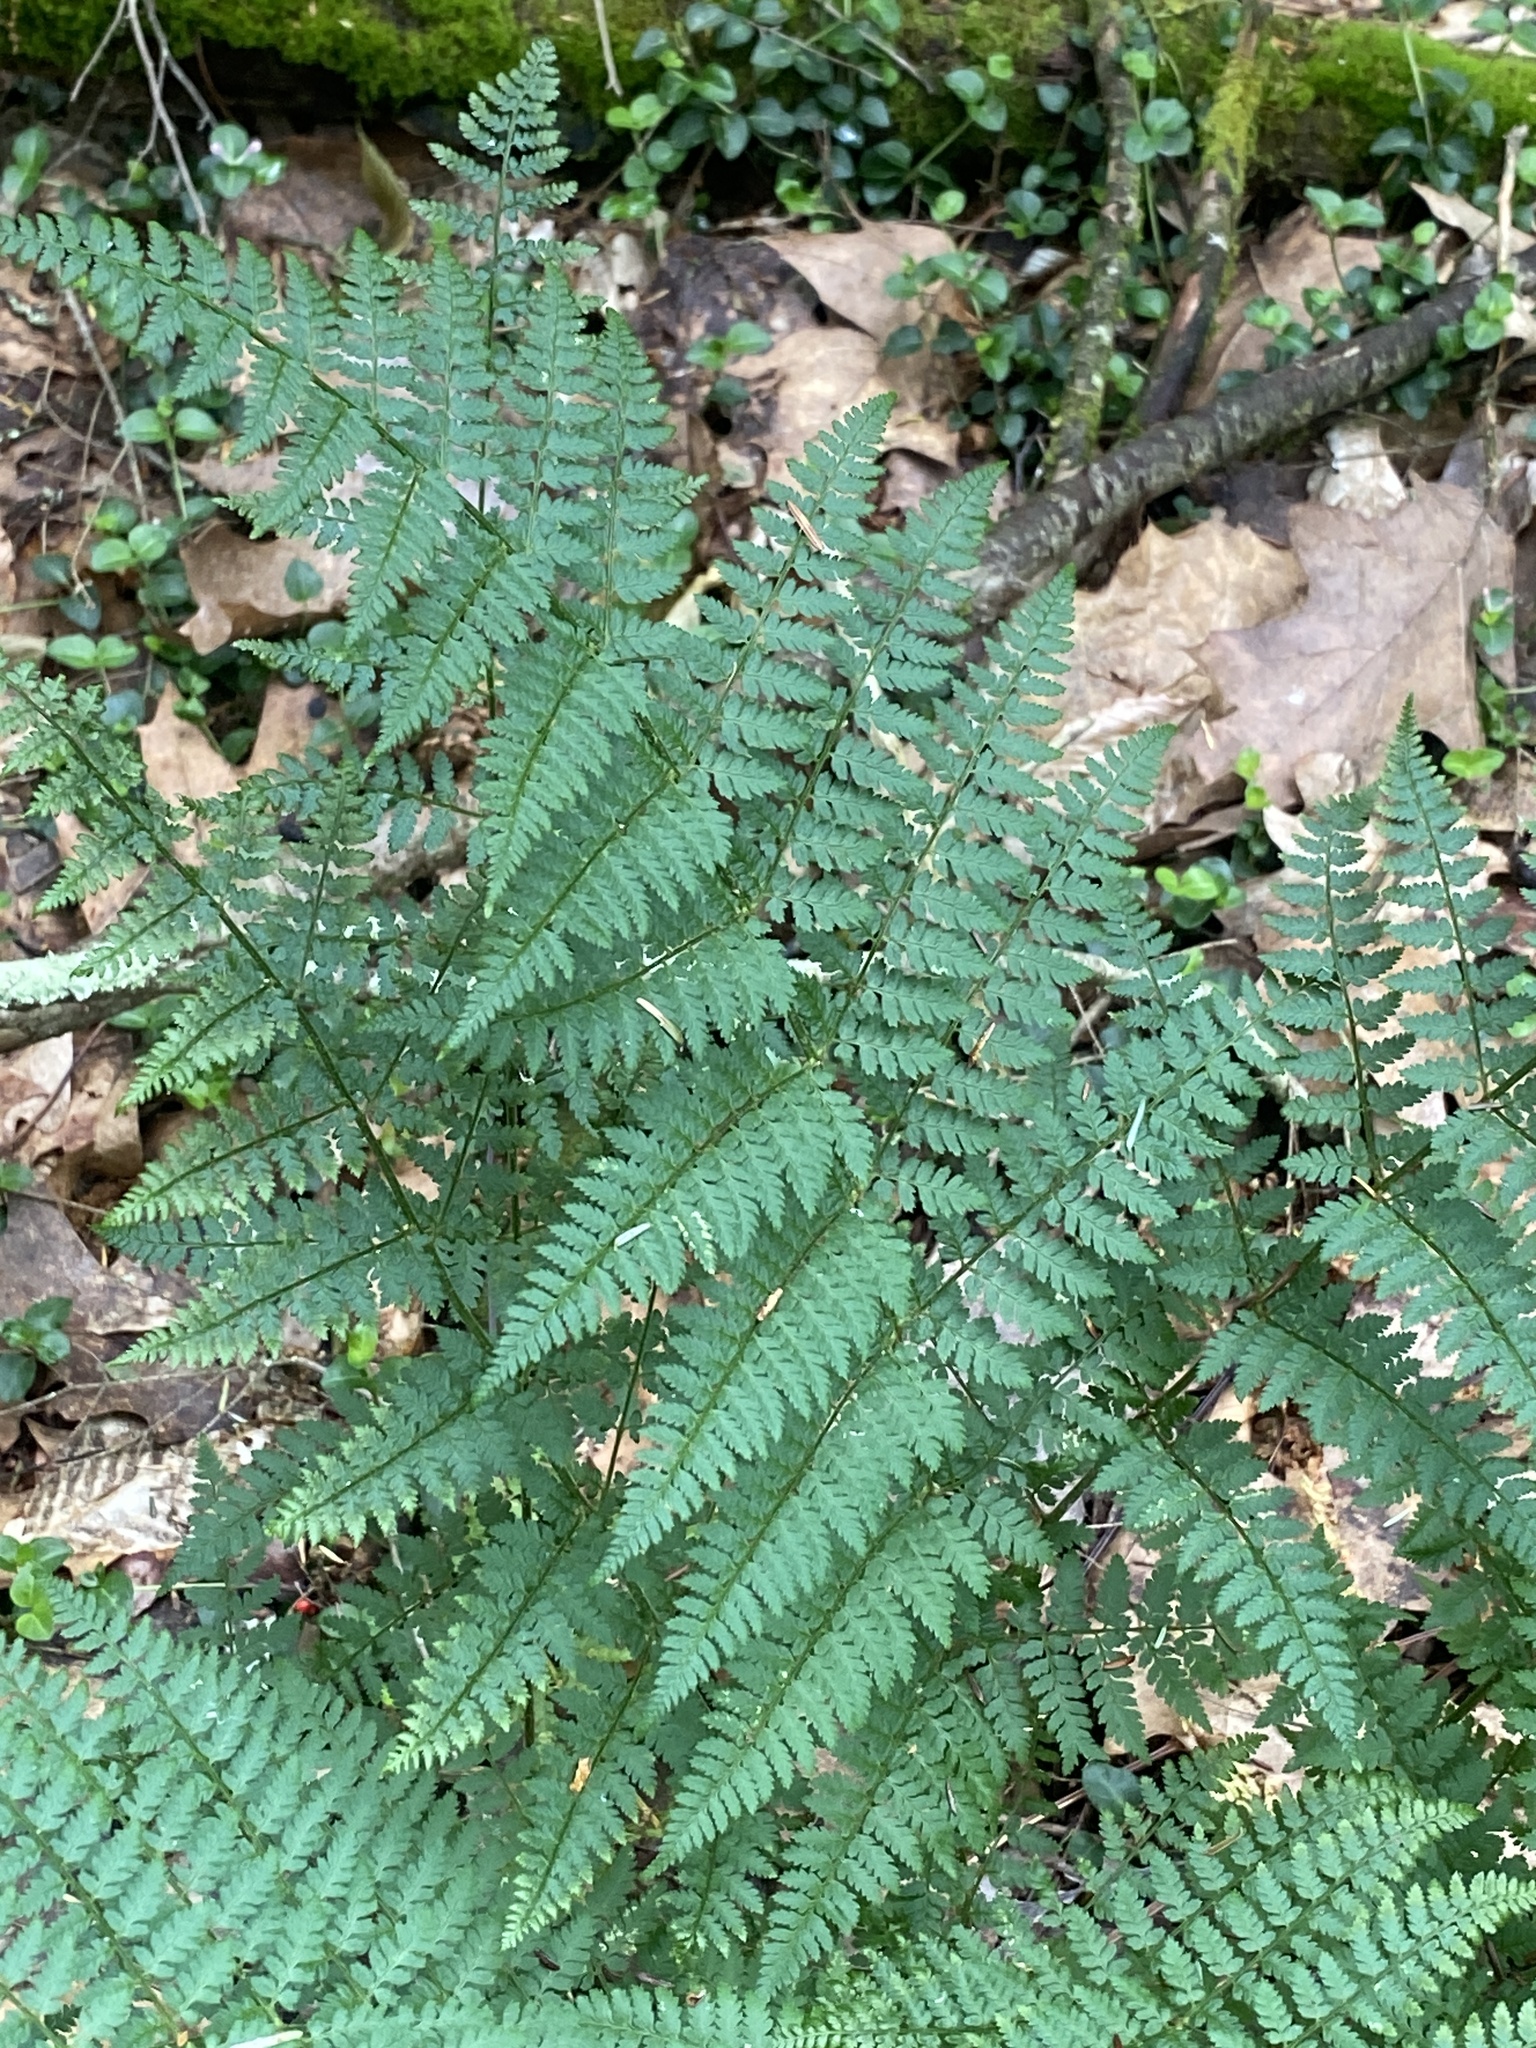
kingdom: Plantae
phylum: Tracheophyta
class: Polypodiopsida
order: Polypodiales
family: Dryopteridaceae
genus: Dryopteris
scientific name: Dryopteris intermedia
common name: Evergreen wood fern
